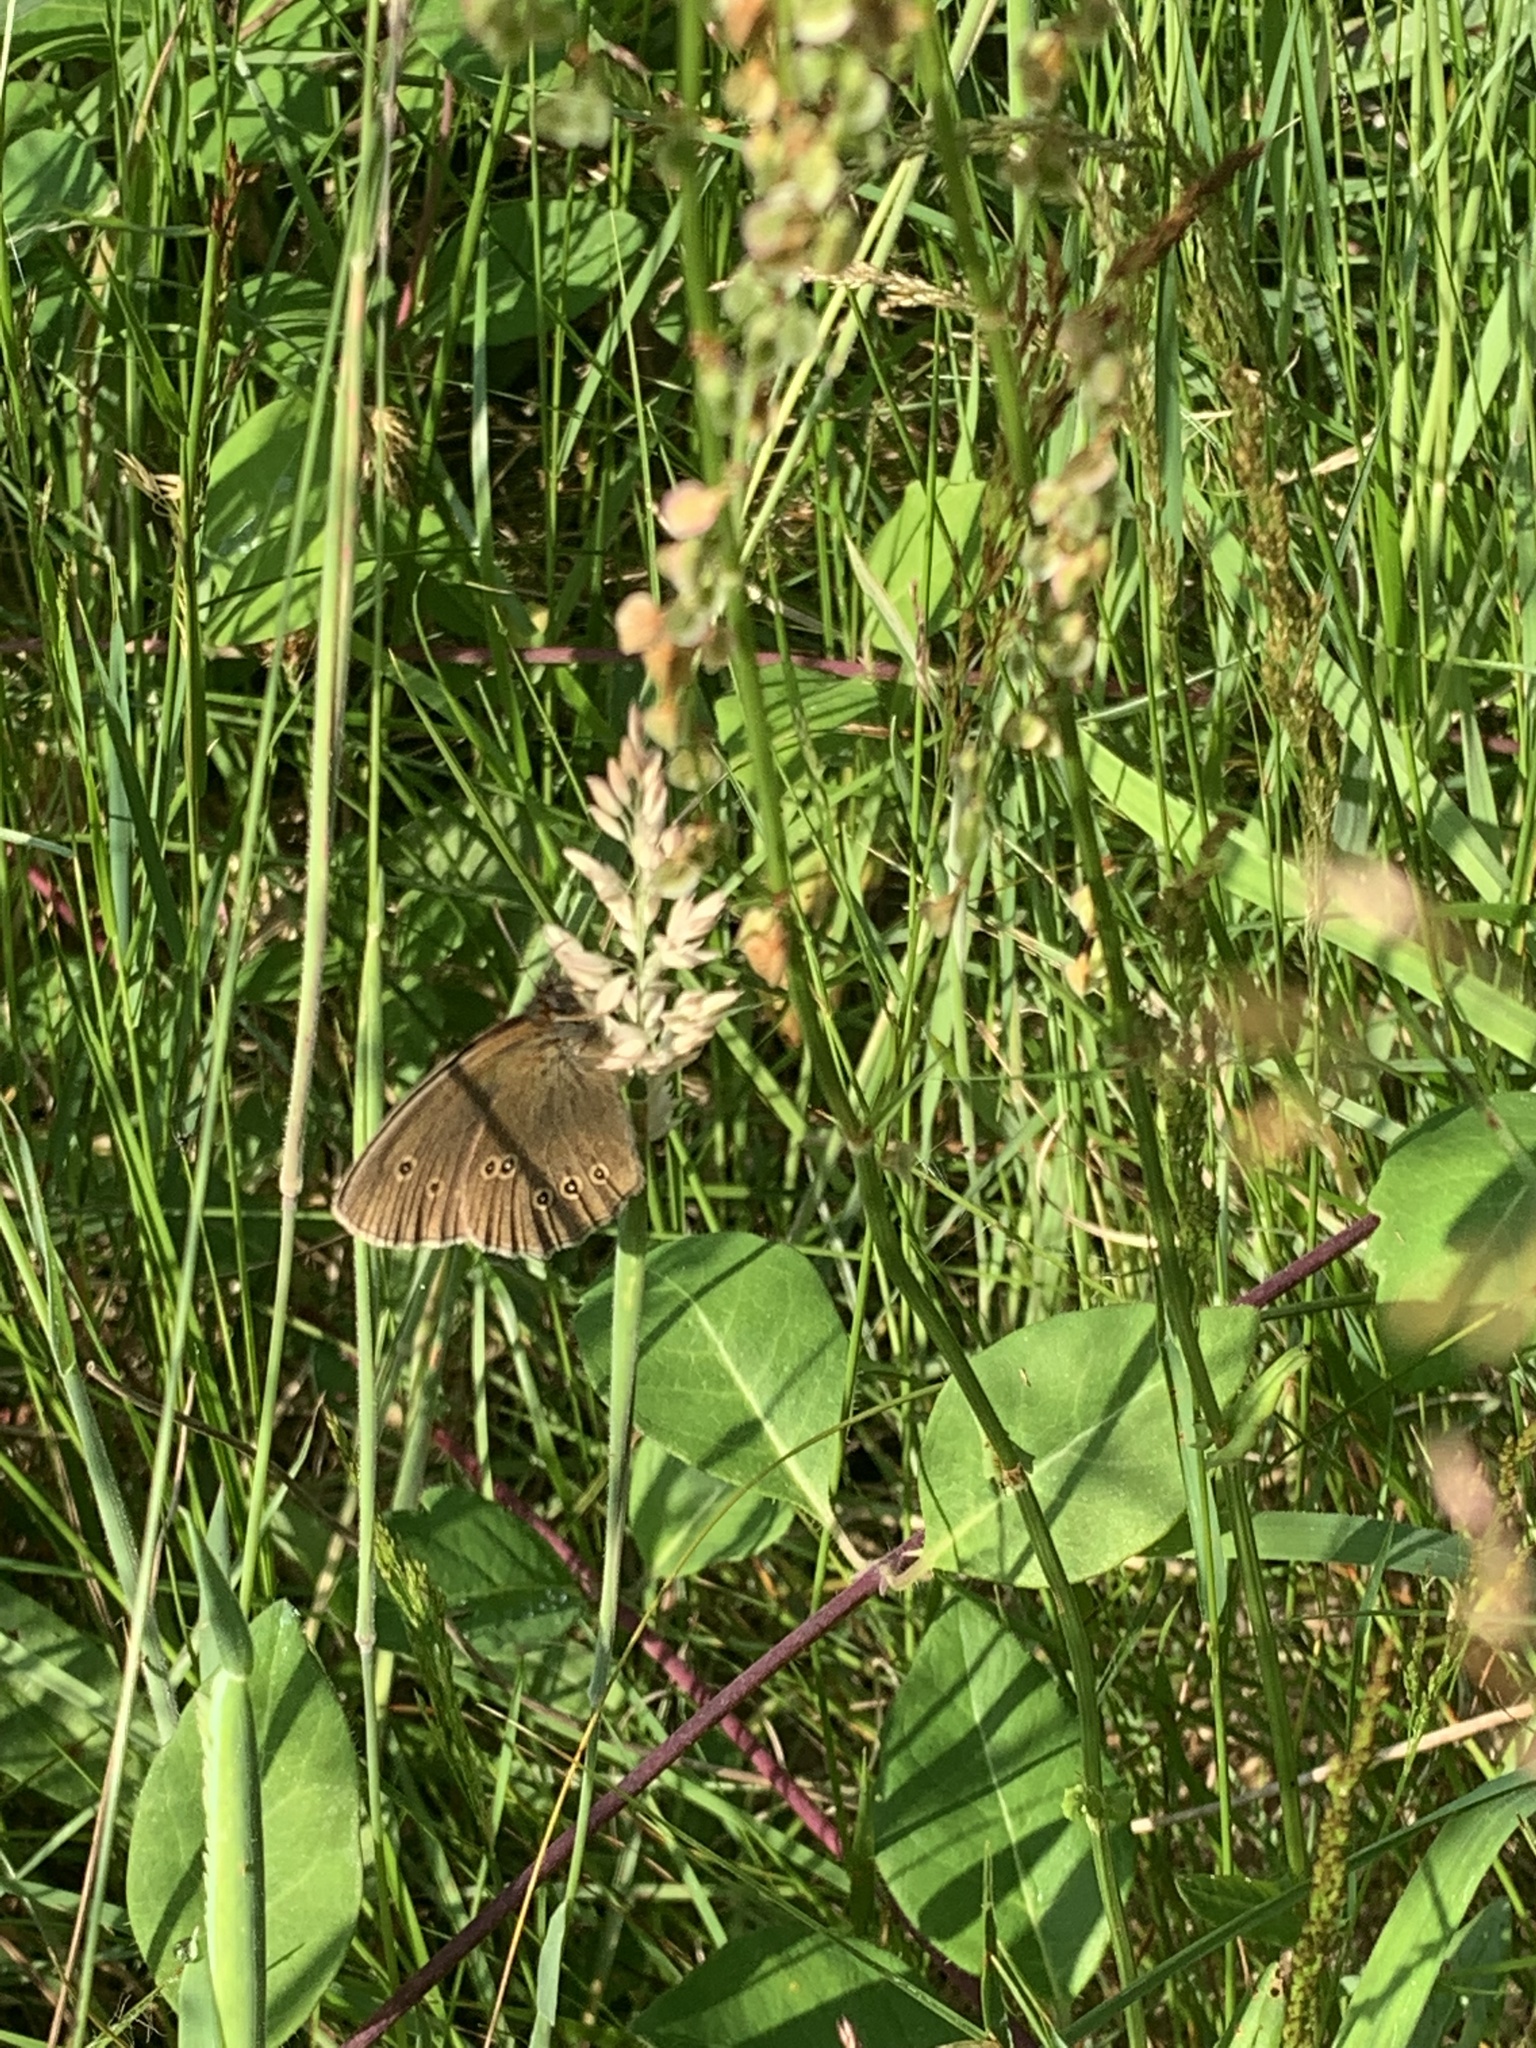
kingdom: Animalia
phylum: Arthropoda
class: Insecta
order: Lepidoptera
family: Nymphalidae
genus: Aphantopus
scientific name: Aphantopus hyperantus
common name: Ringlet
